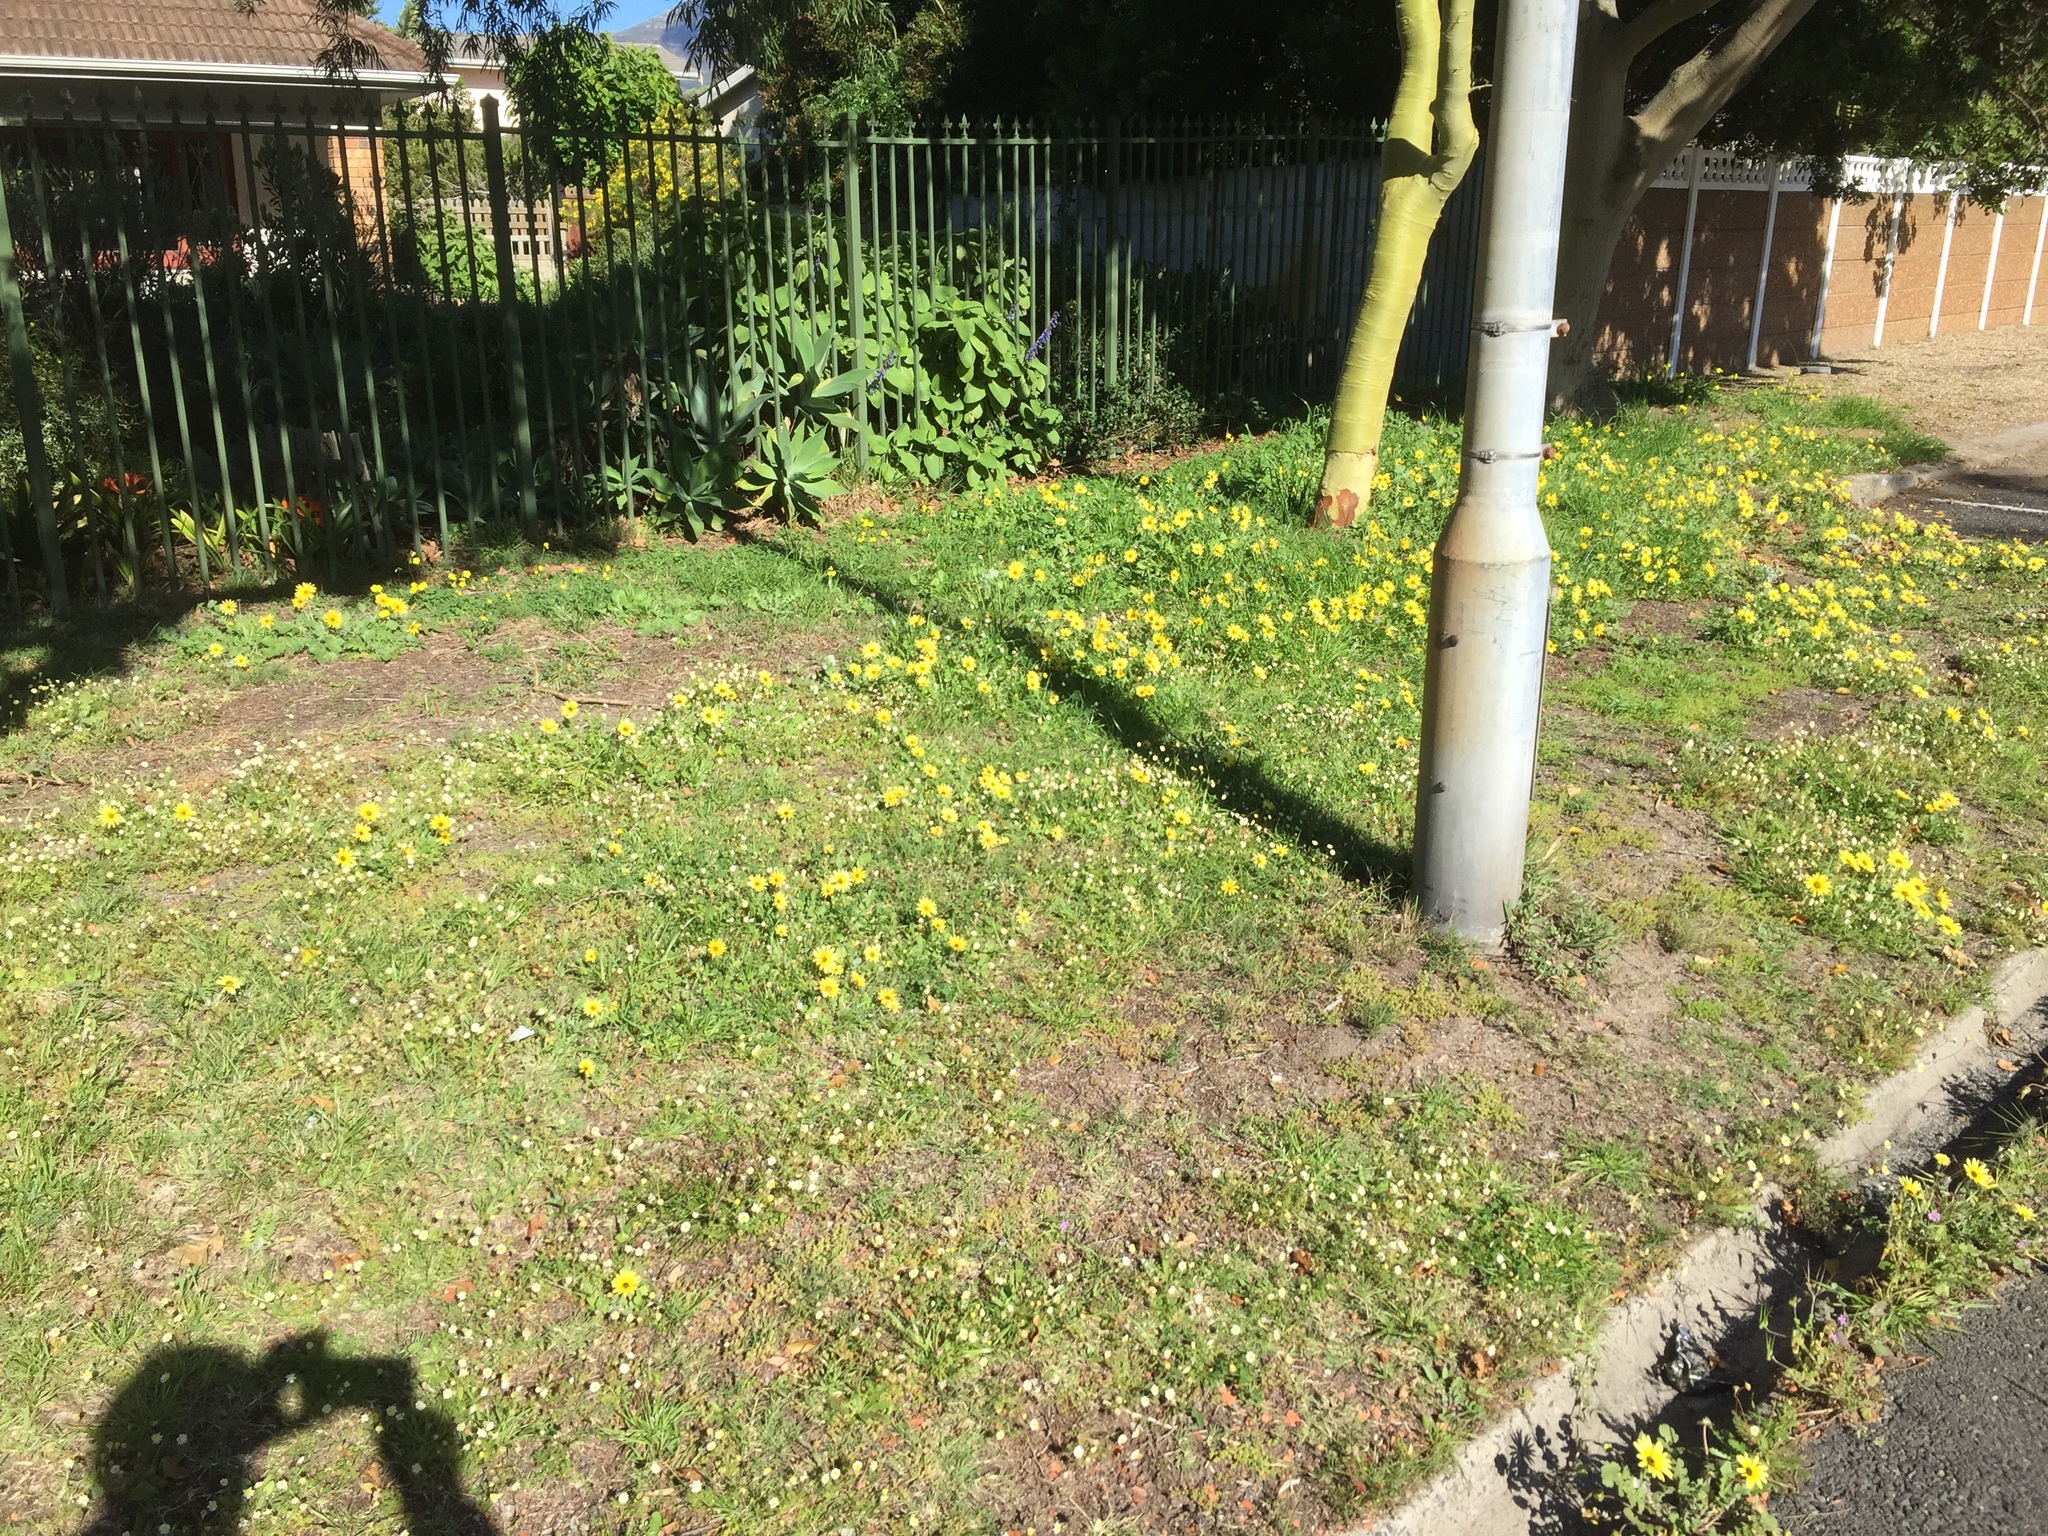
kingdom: Plantae
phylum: Tracheophyta
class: Magnoliopsida
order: Asterales
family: Asteraceae
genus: Arctotheca
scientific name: Arctotheca calendula
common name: Capeweed
